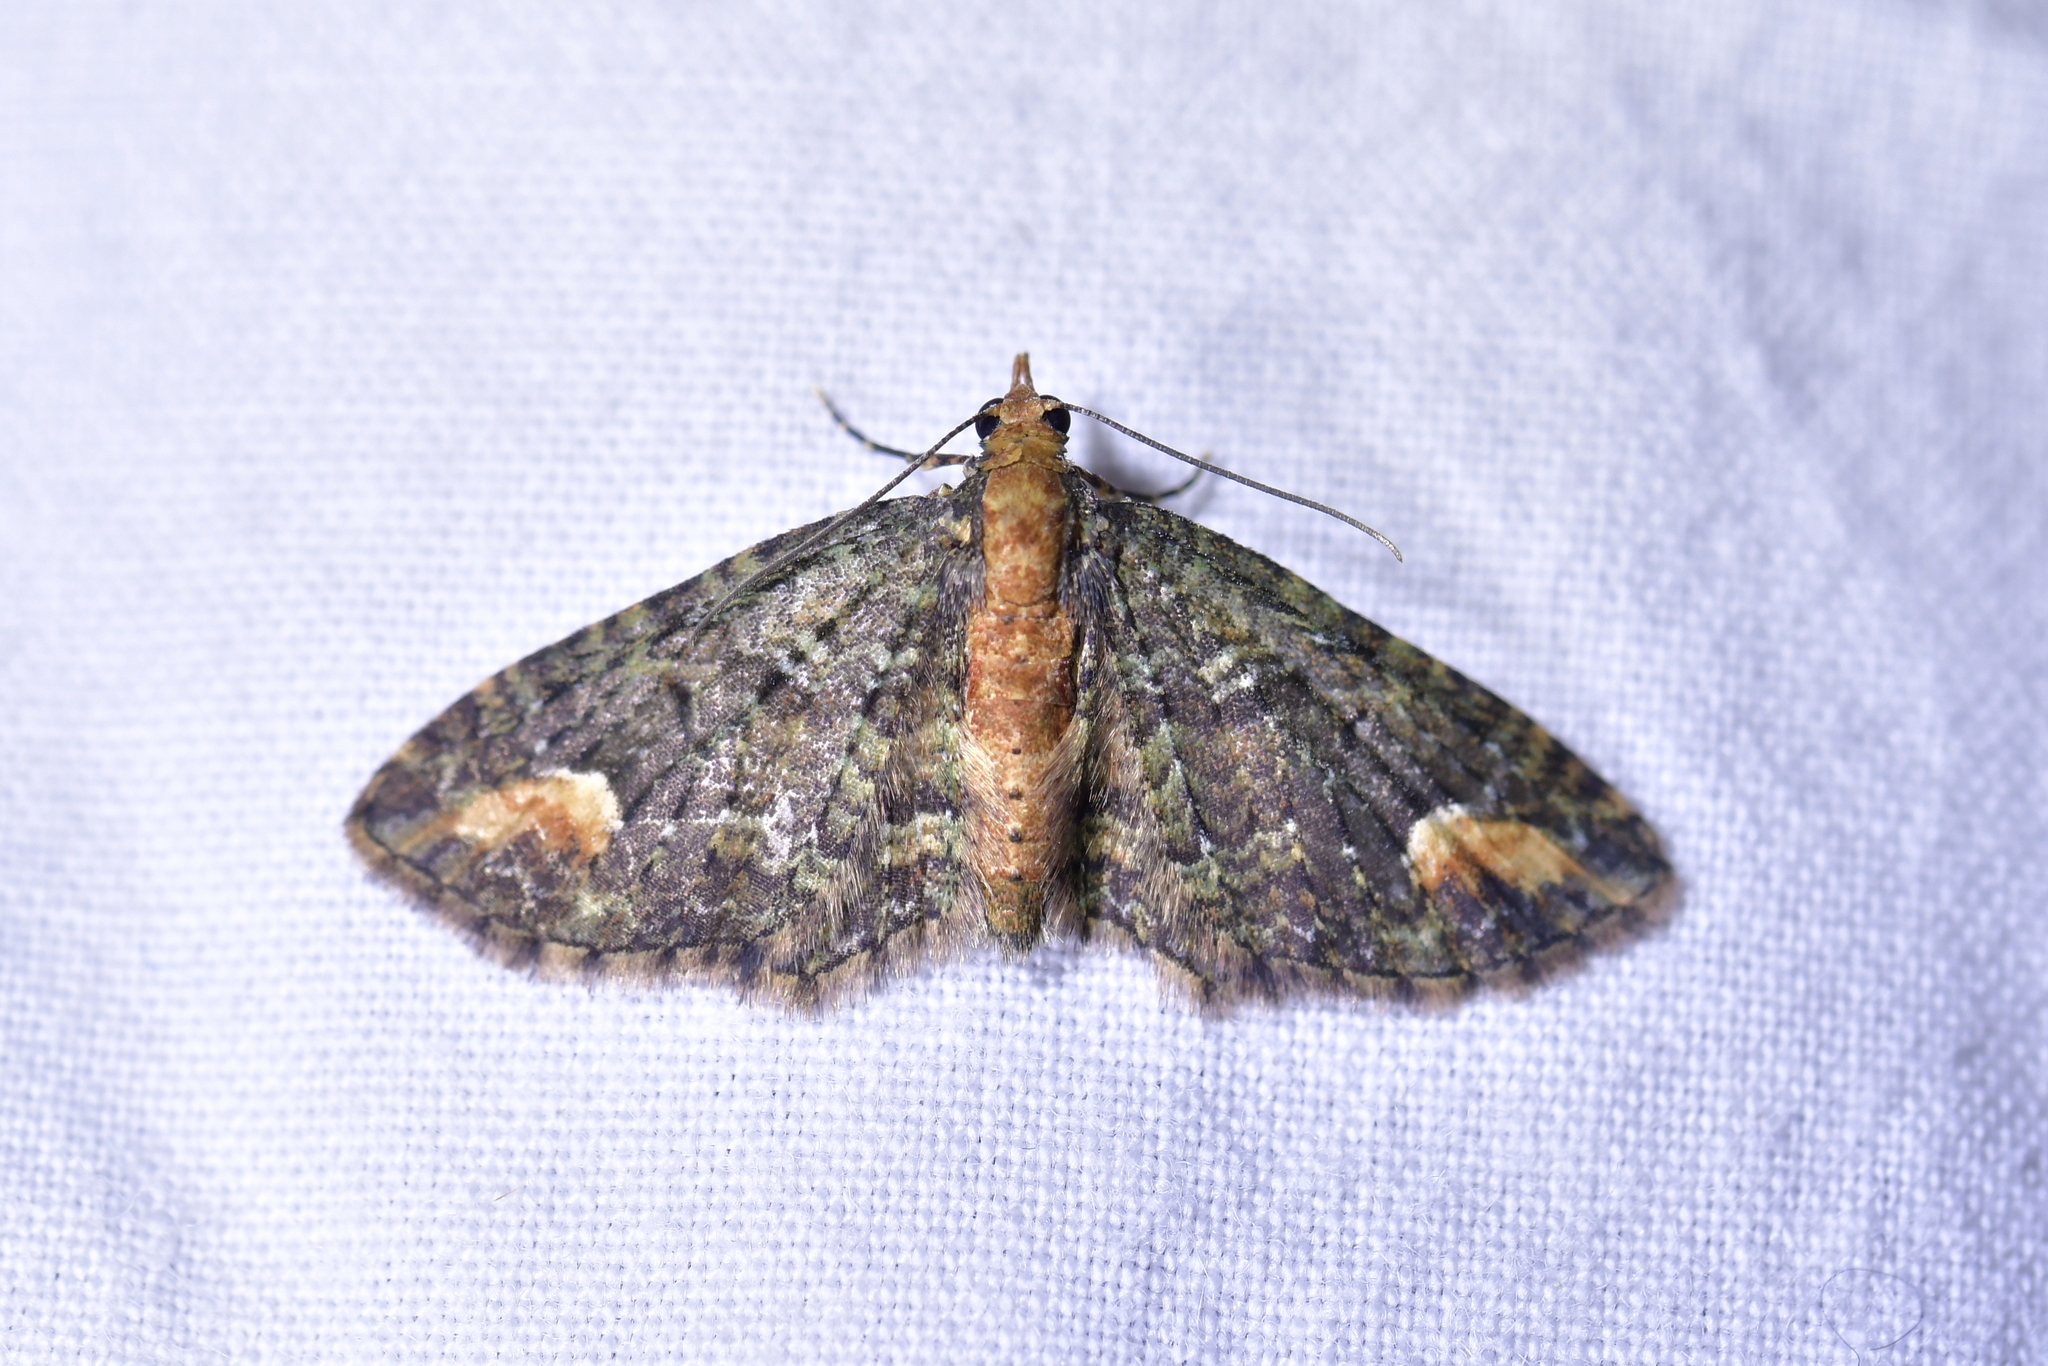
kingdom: Animalia
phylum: Arthropoda
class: Insecta
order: Lepidoptera
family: Geometridae
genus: Pasiphilodes
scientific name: Pasiphilodes testulata
